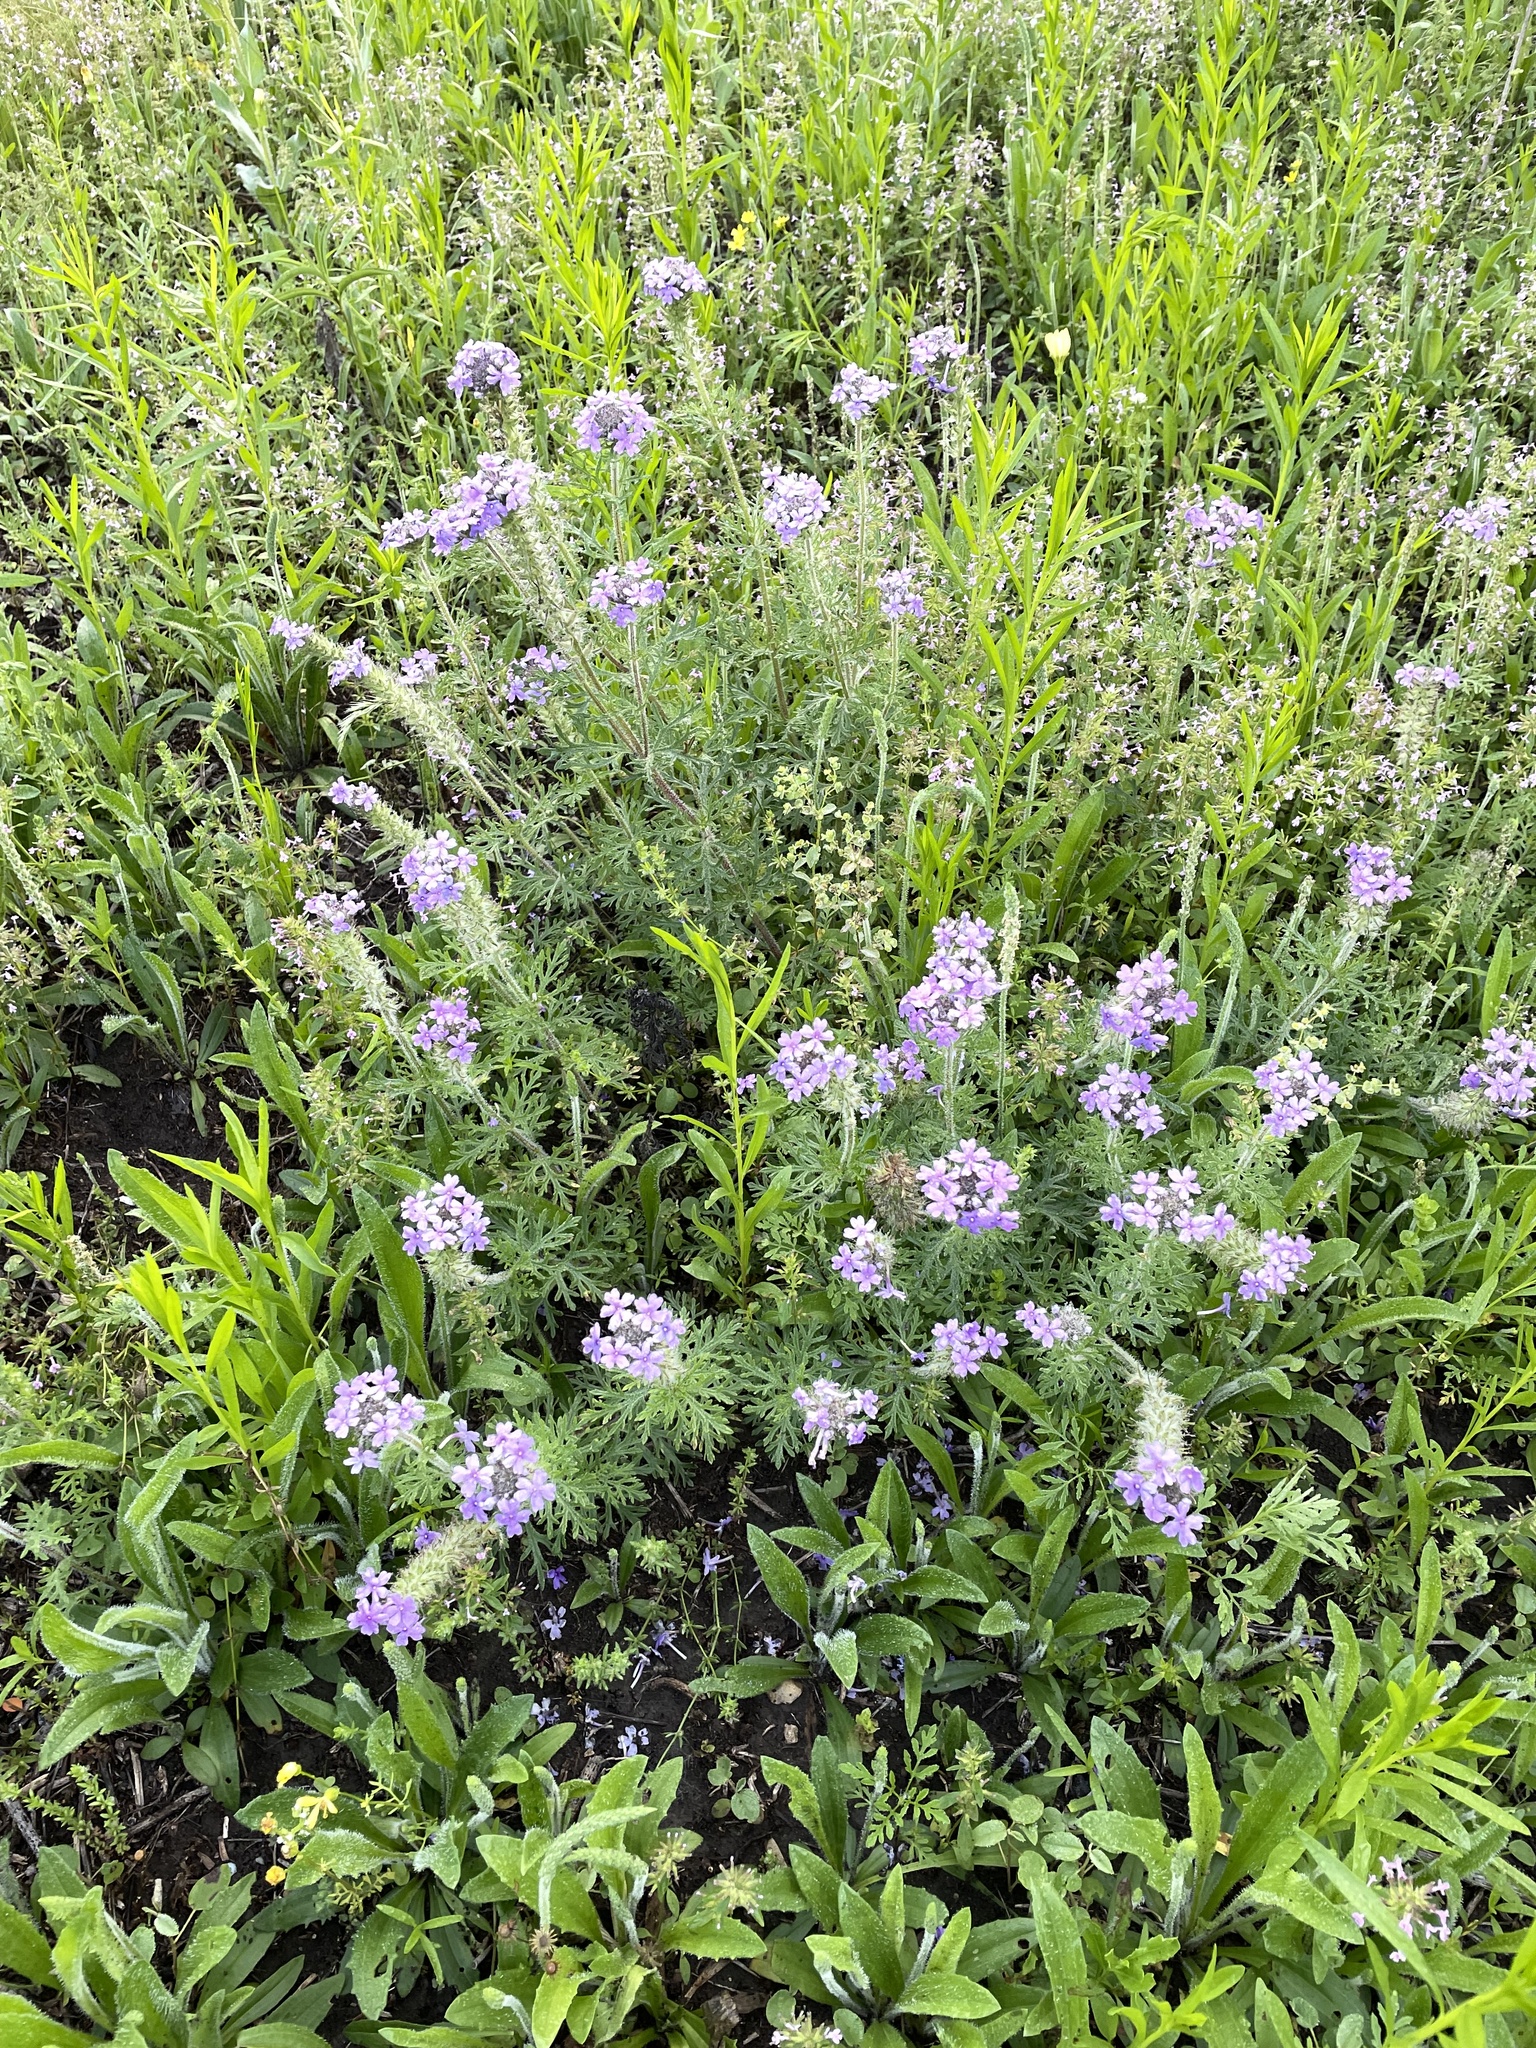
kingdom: Plantae
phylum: Tracheophyta
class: Magnoliopsida
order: Lamiales
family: Verbenaceae
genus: Verbena
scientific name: Verbena bipinnatifida
